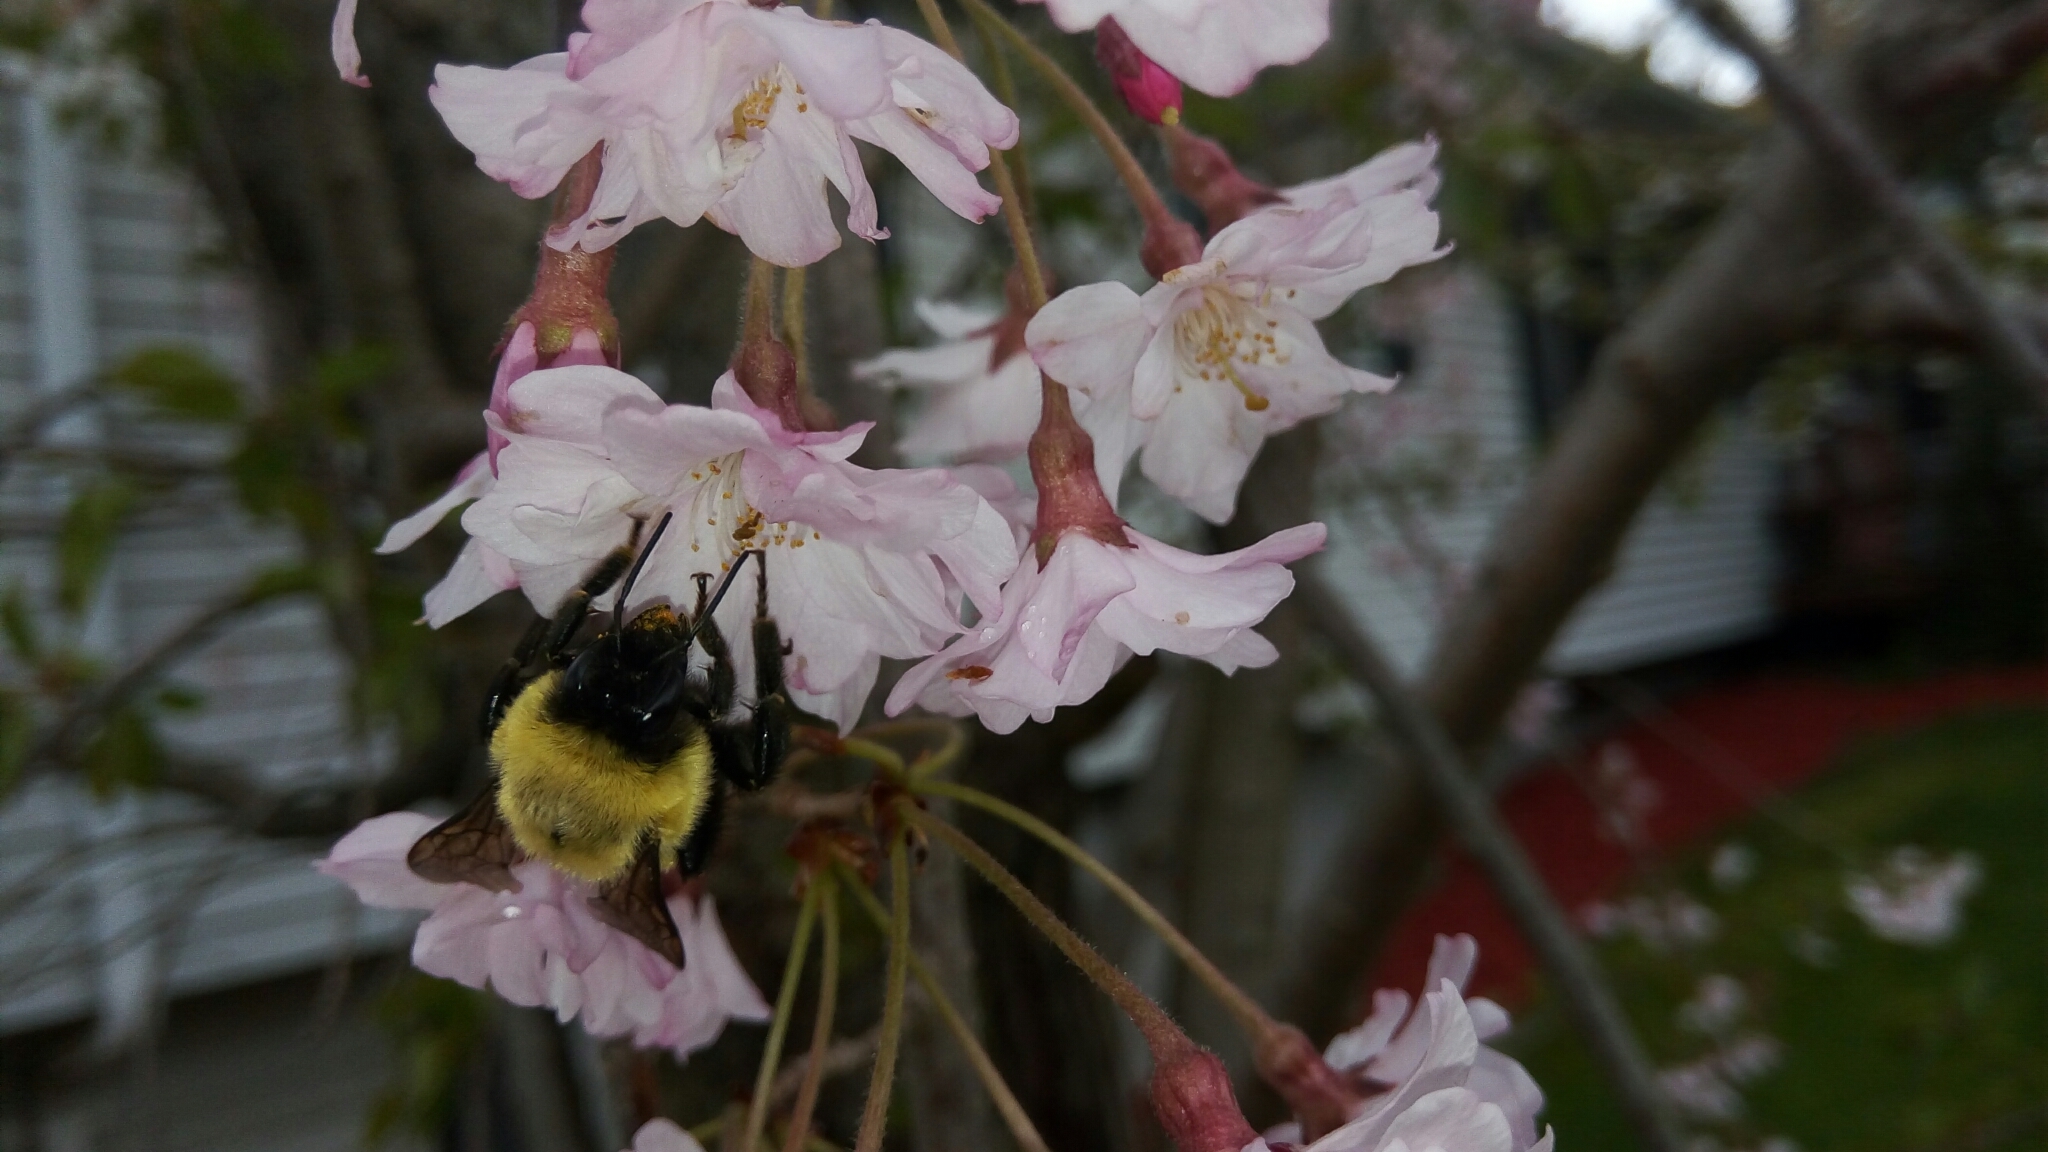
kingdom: Animalia
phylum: Arthropoda
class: Insecta
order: Hymenoptera
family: Apidae
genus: Bombus
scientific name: Bombus impatiens
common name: Common eastern bumble bee
